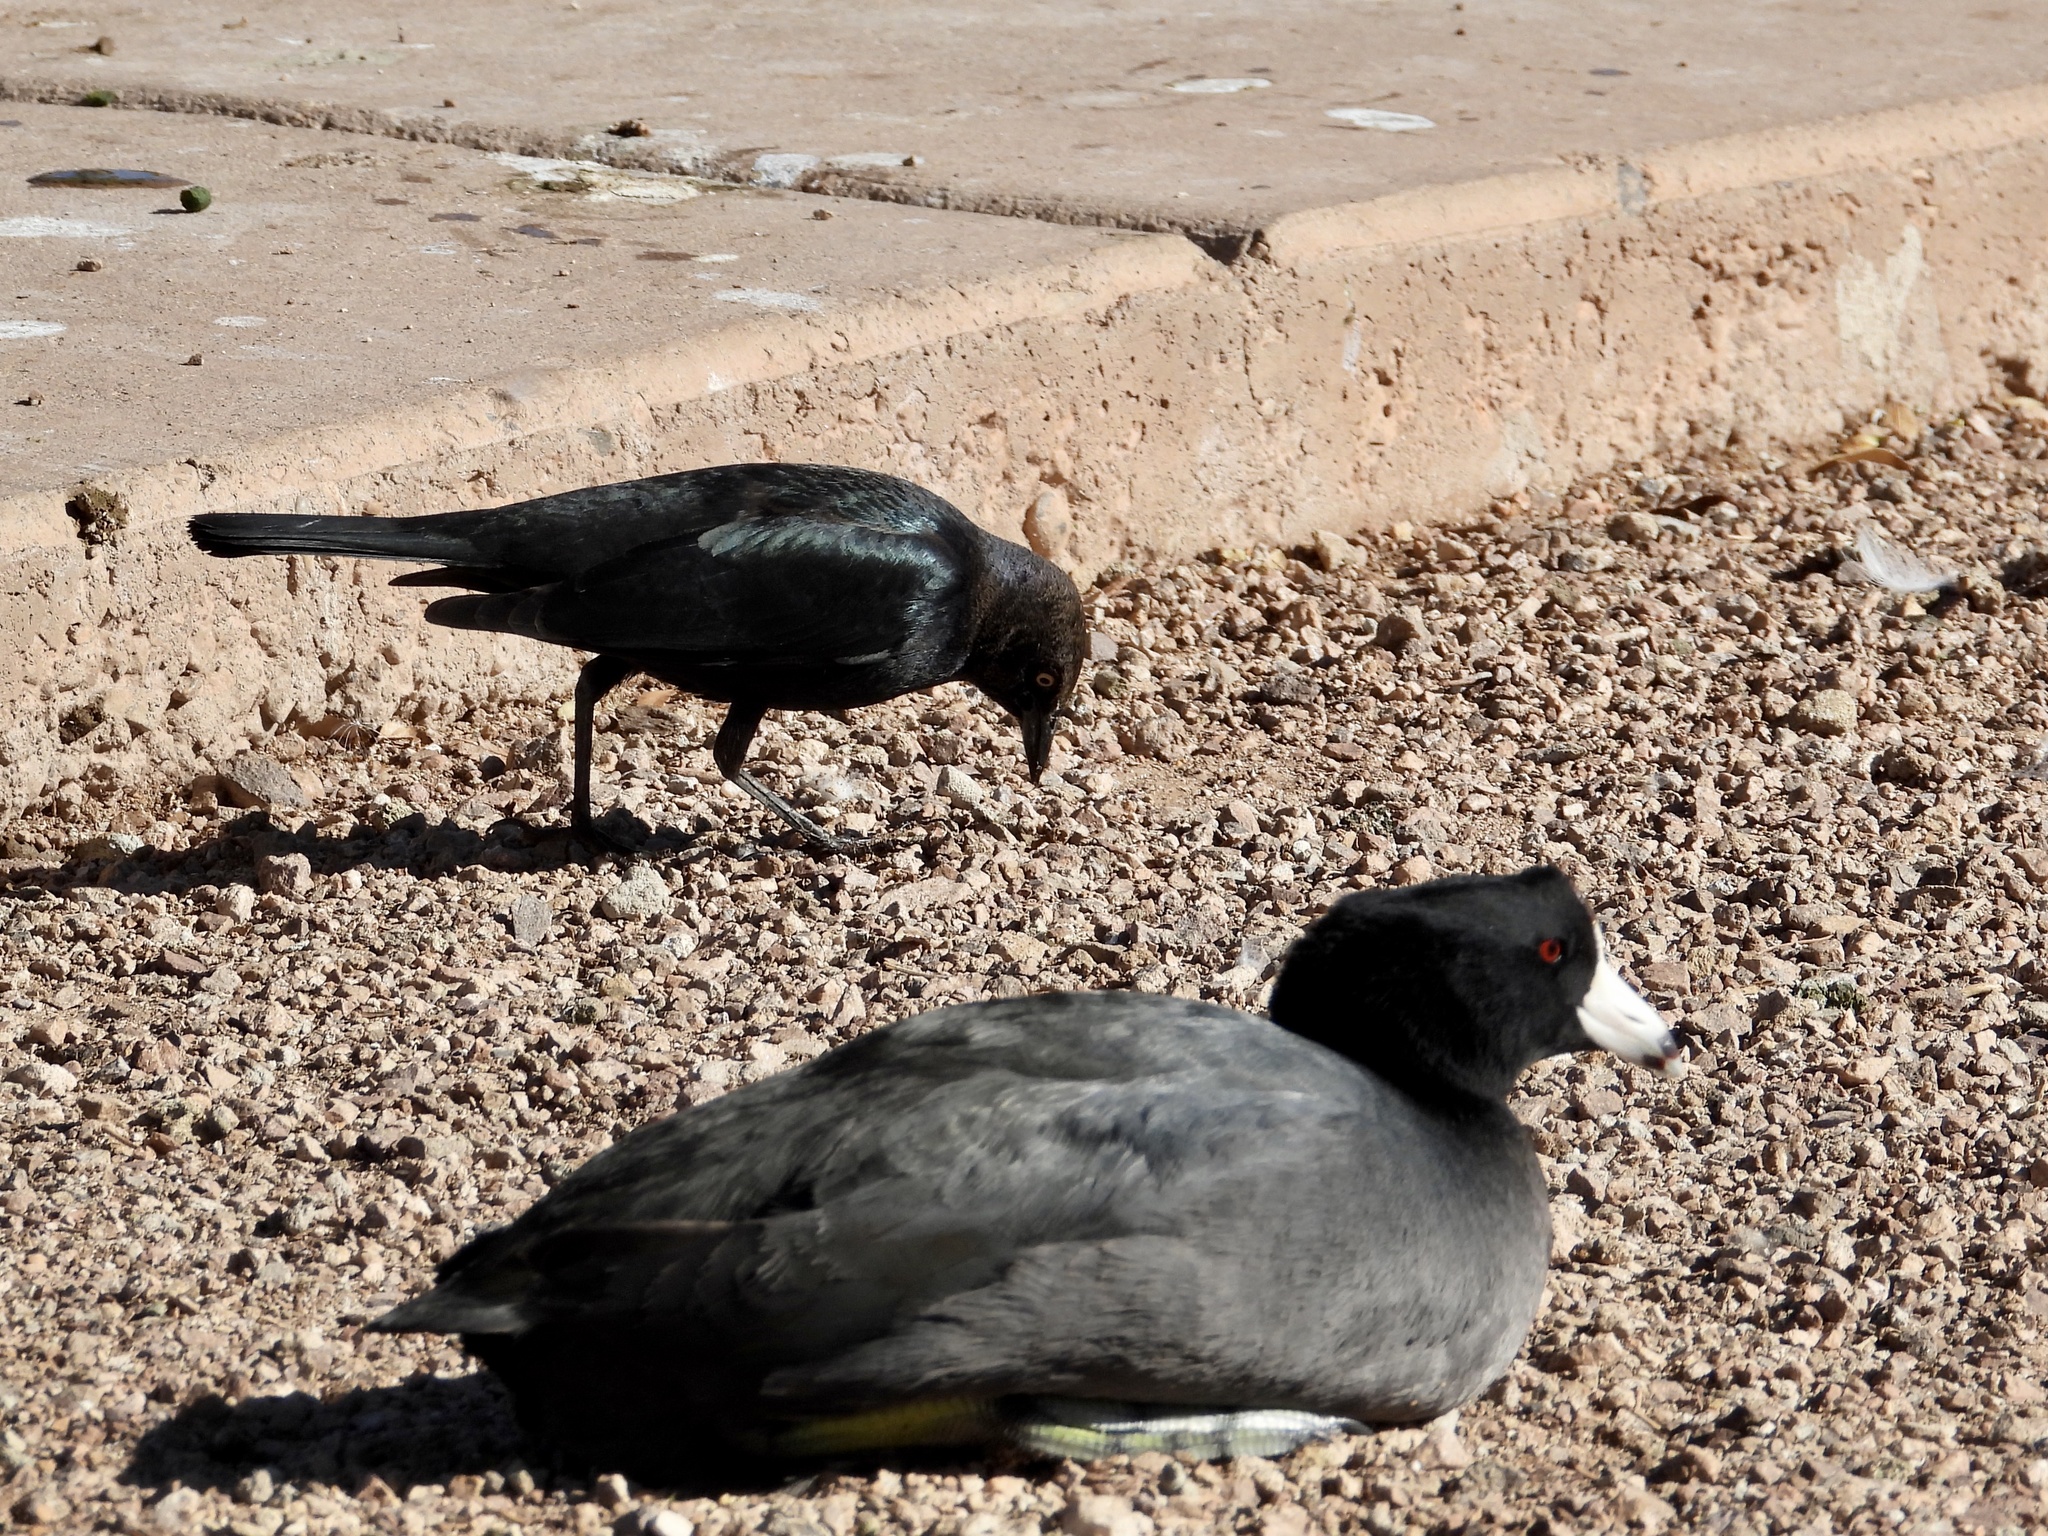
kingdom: Animalia
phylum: Chordata
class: Aves
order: Gruiformes
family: Rallidae
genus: Fulica
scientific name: Fulica americana
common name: American coot
